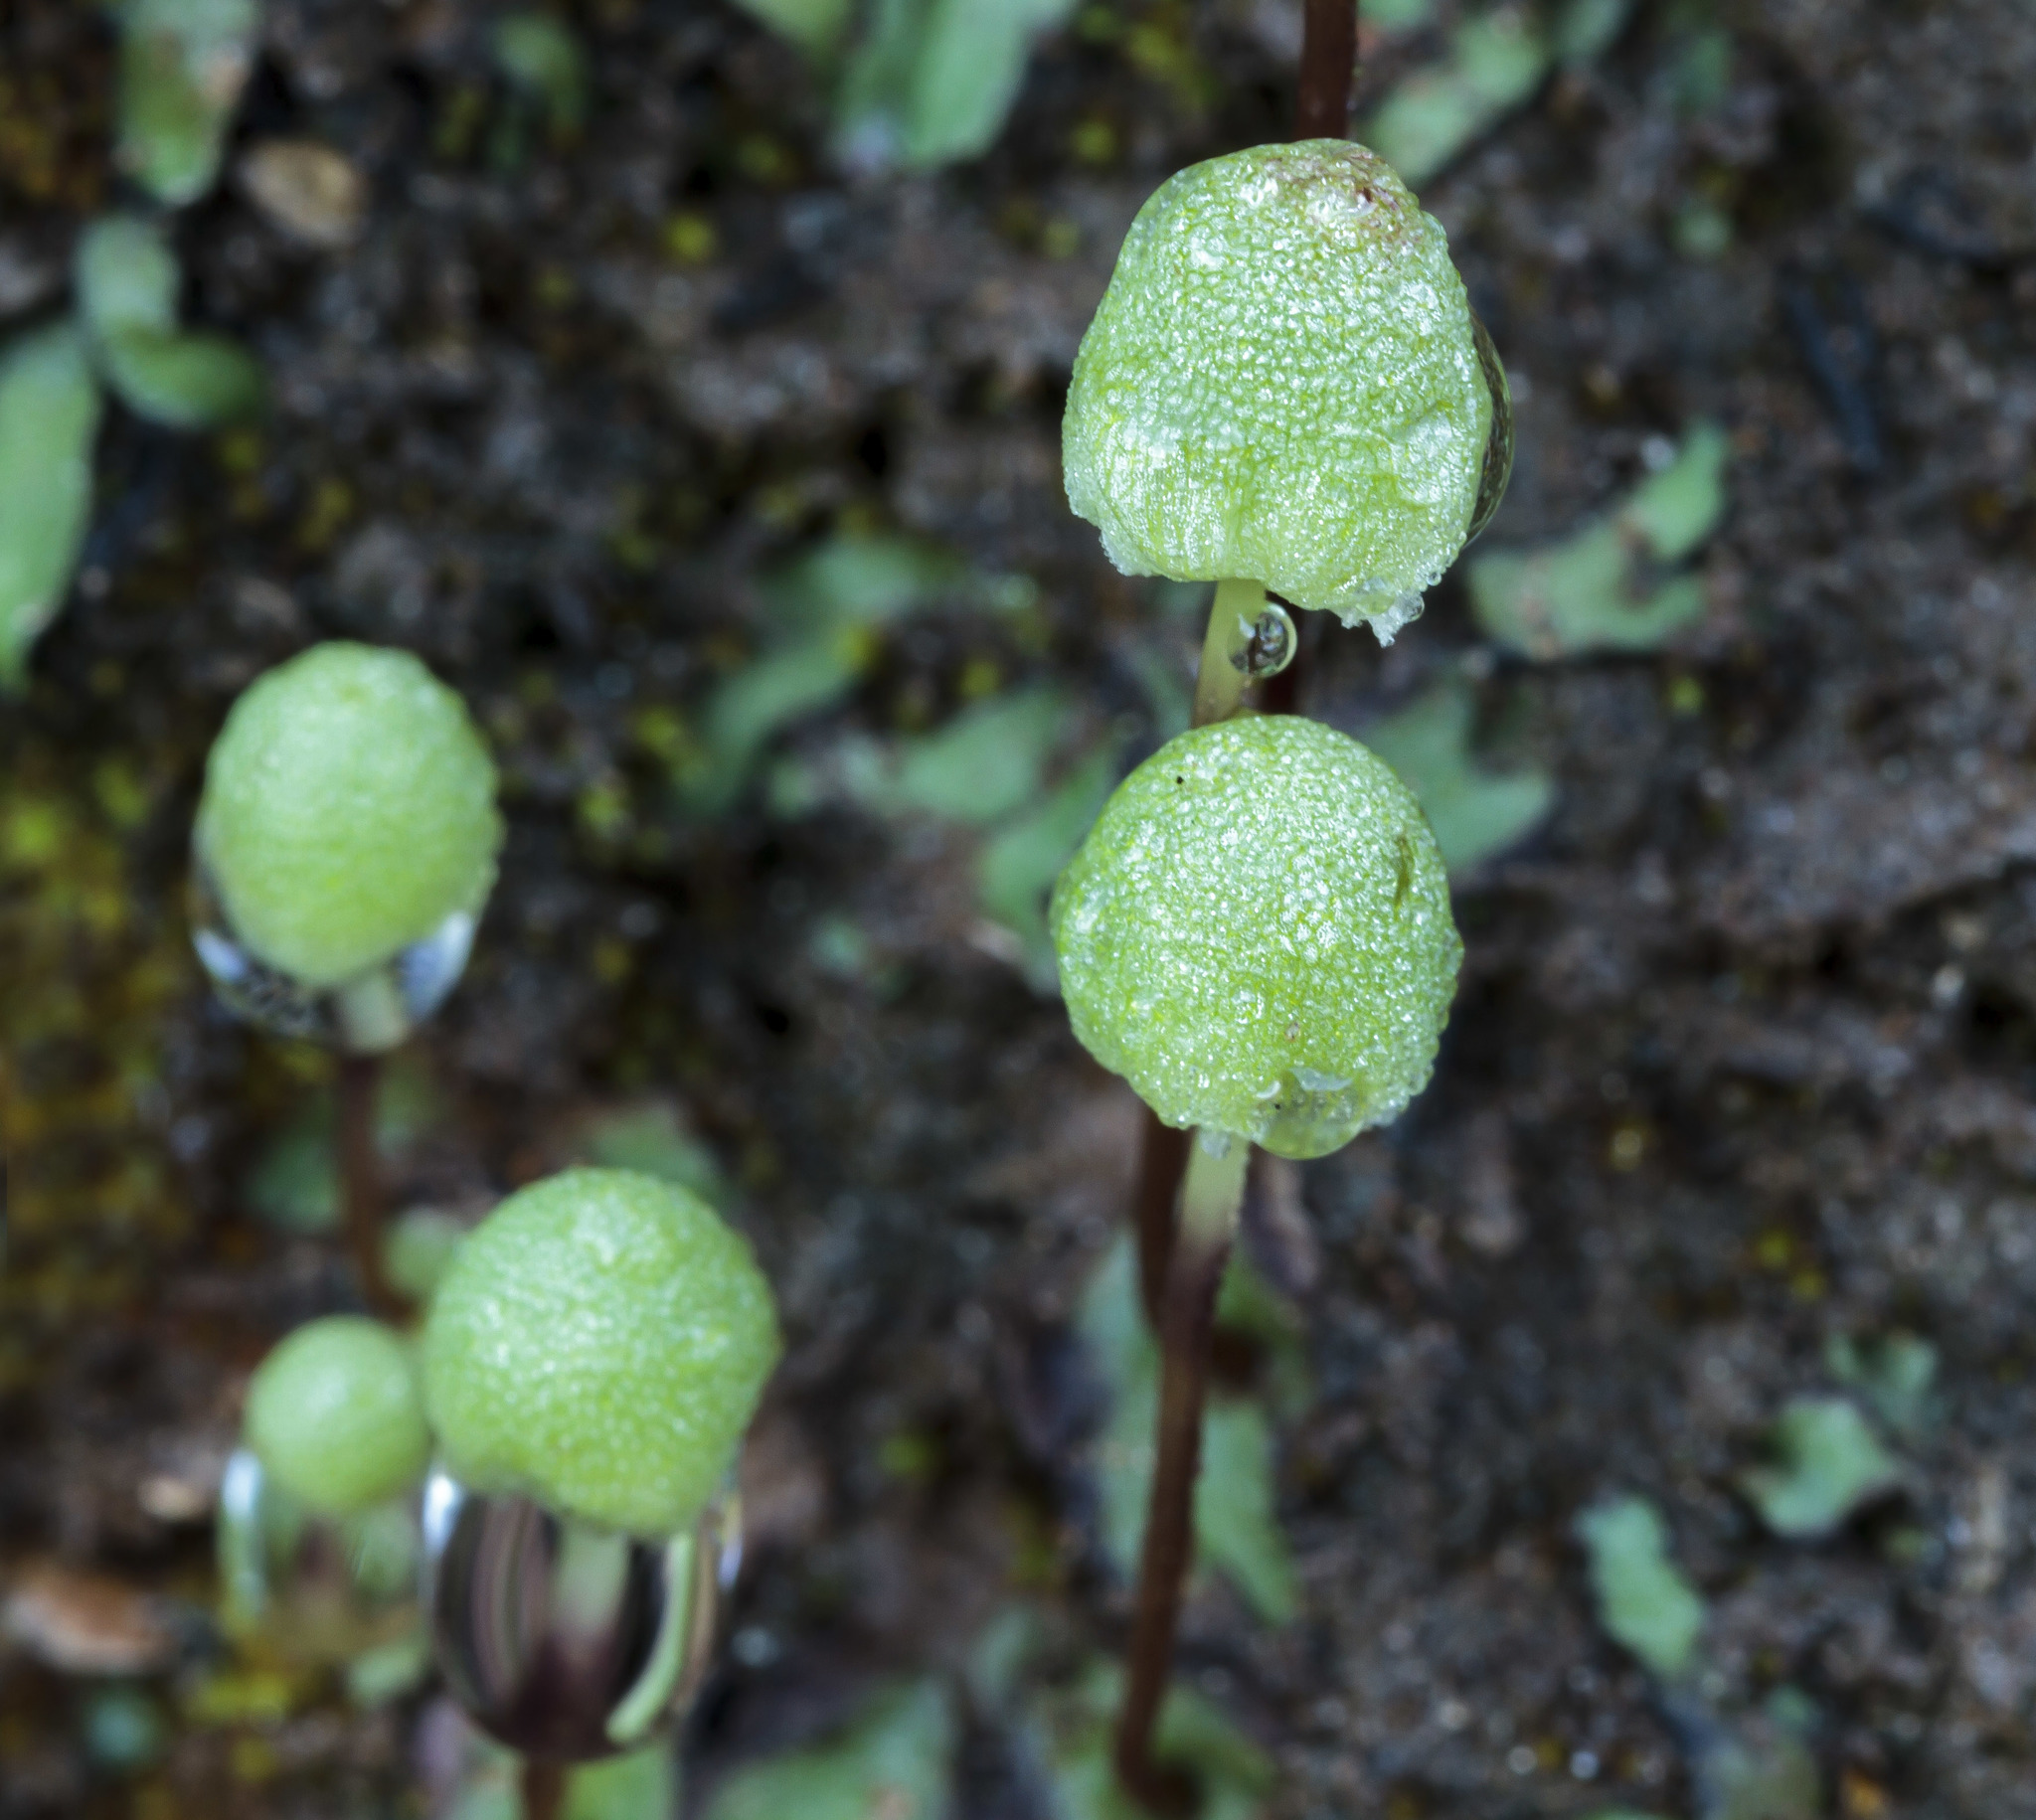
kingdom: Plantae
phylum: Marchantiophyta
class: Marchantiopsida
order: Marchantiales
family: Aytoniaceae
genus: Asterella
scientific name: Asterella palmeri
